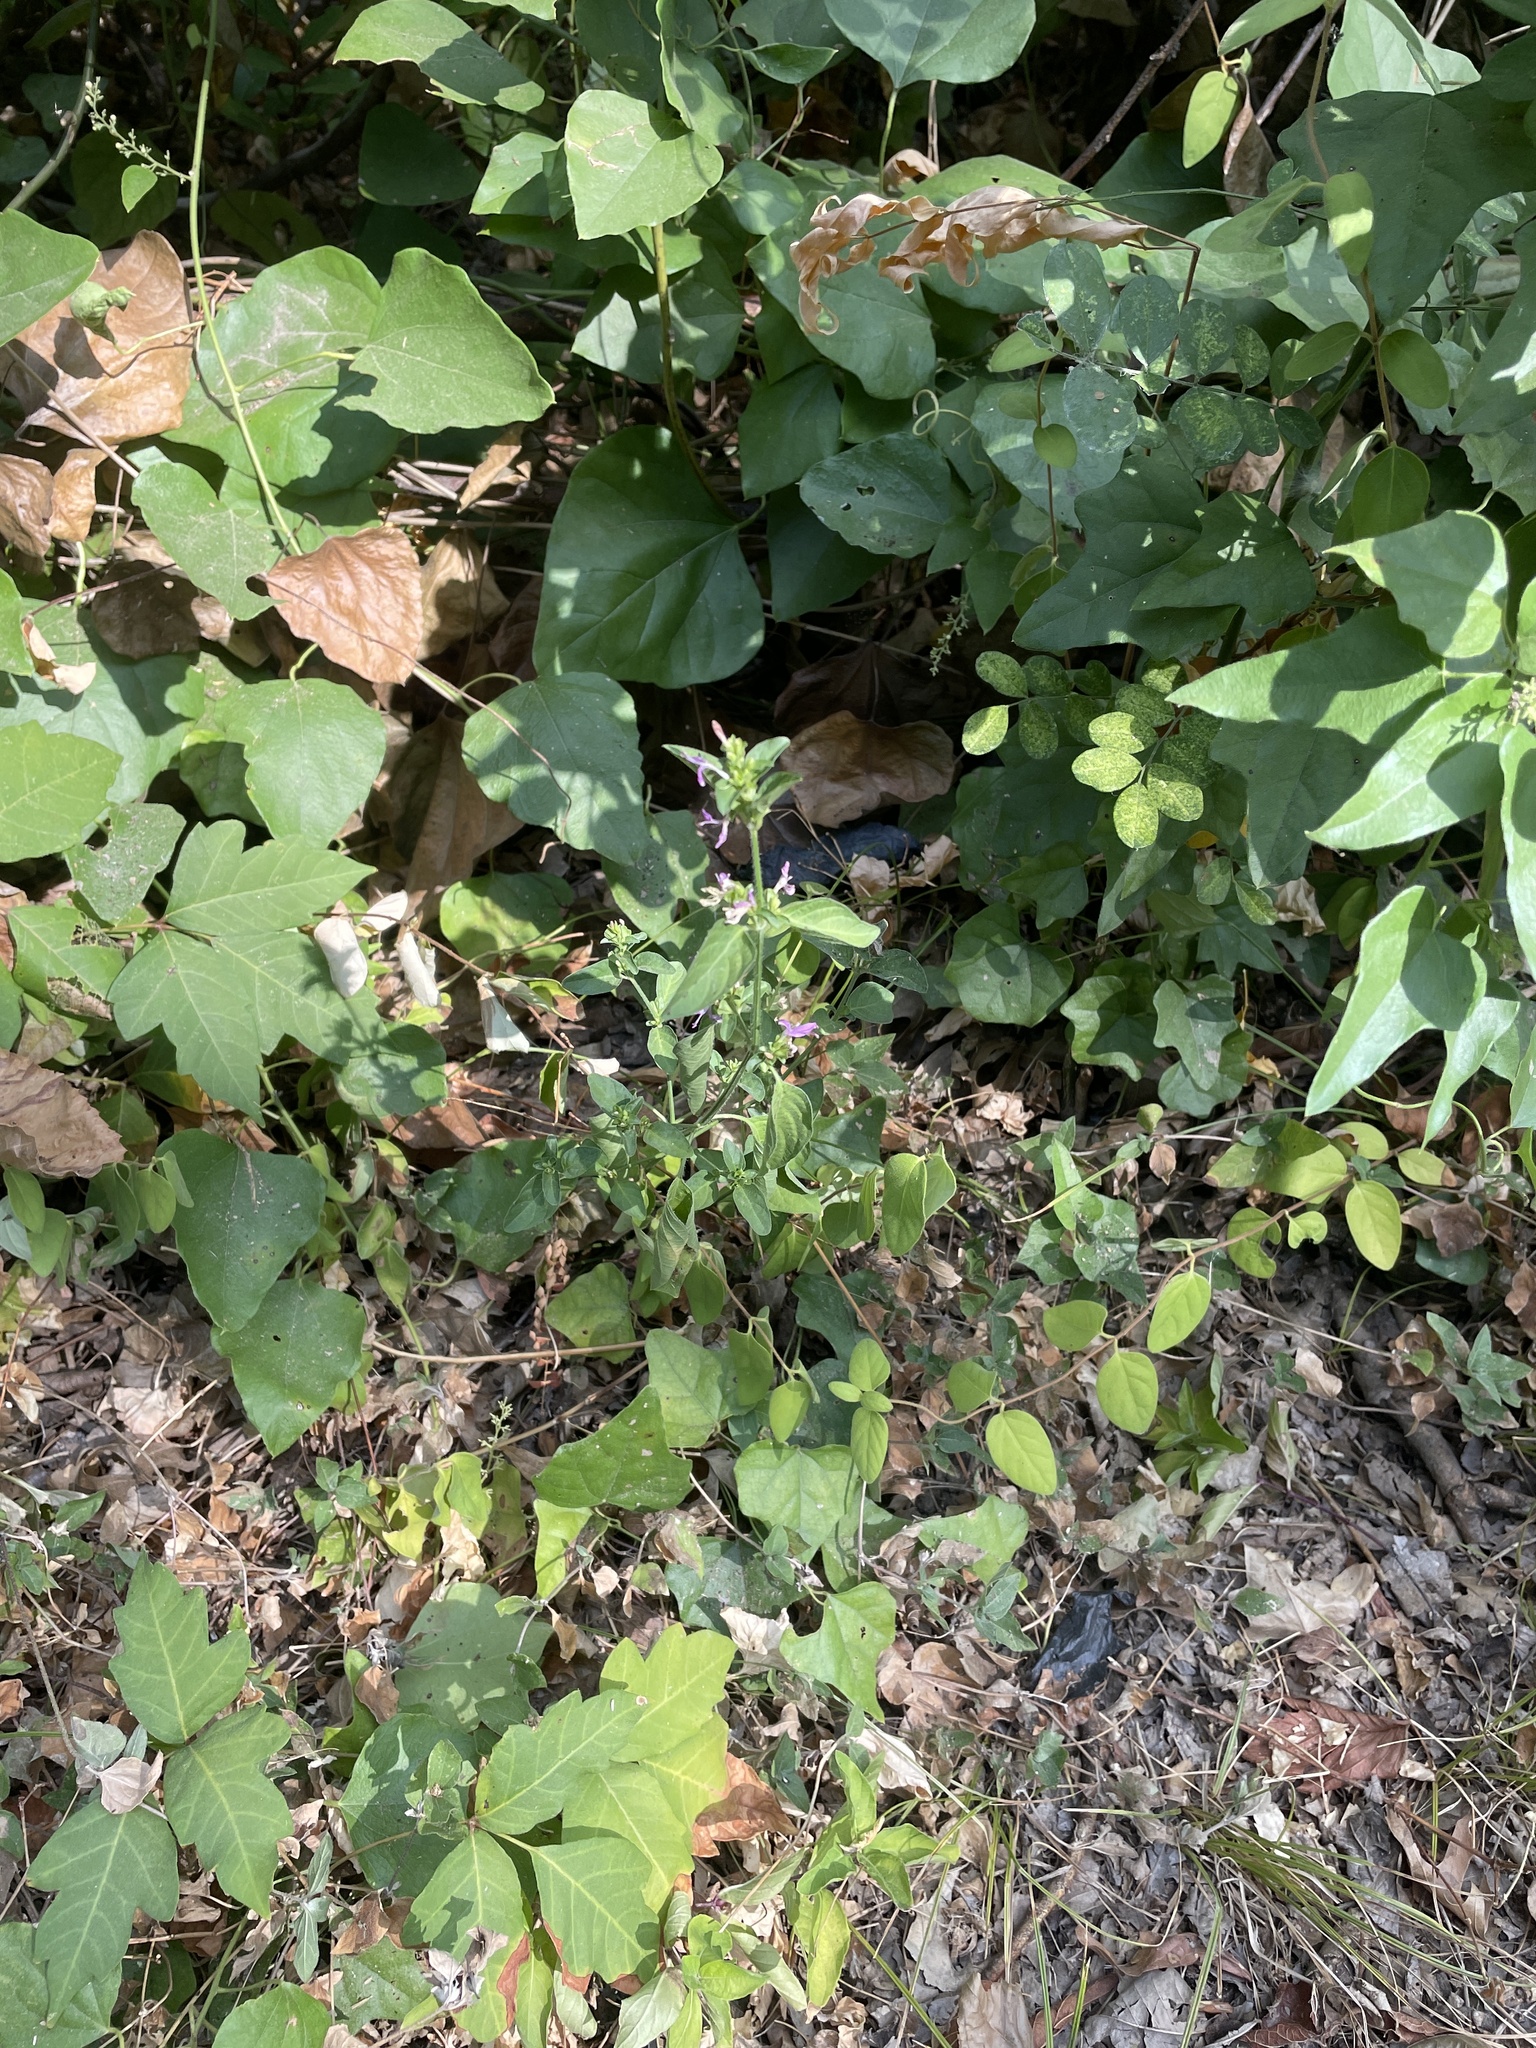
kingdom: Plantae
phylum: Tracheophyta
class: Magnoliopsida
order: Lamiales
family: Acanthaceae
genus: Dicliptera
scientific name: Dicliptera brachiata
